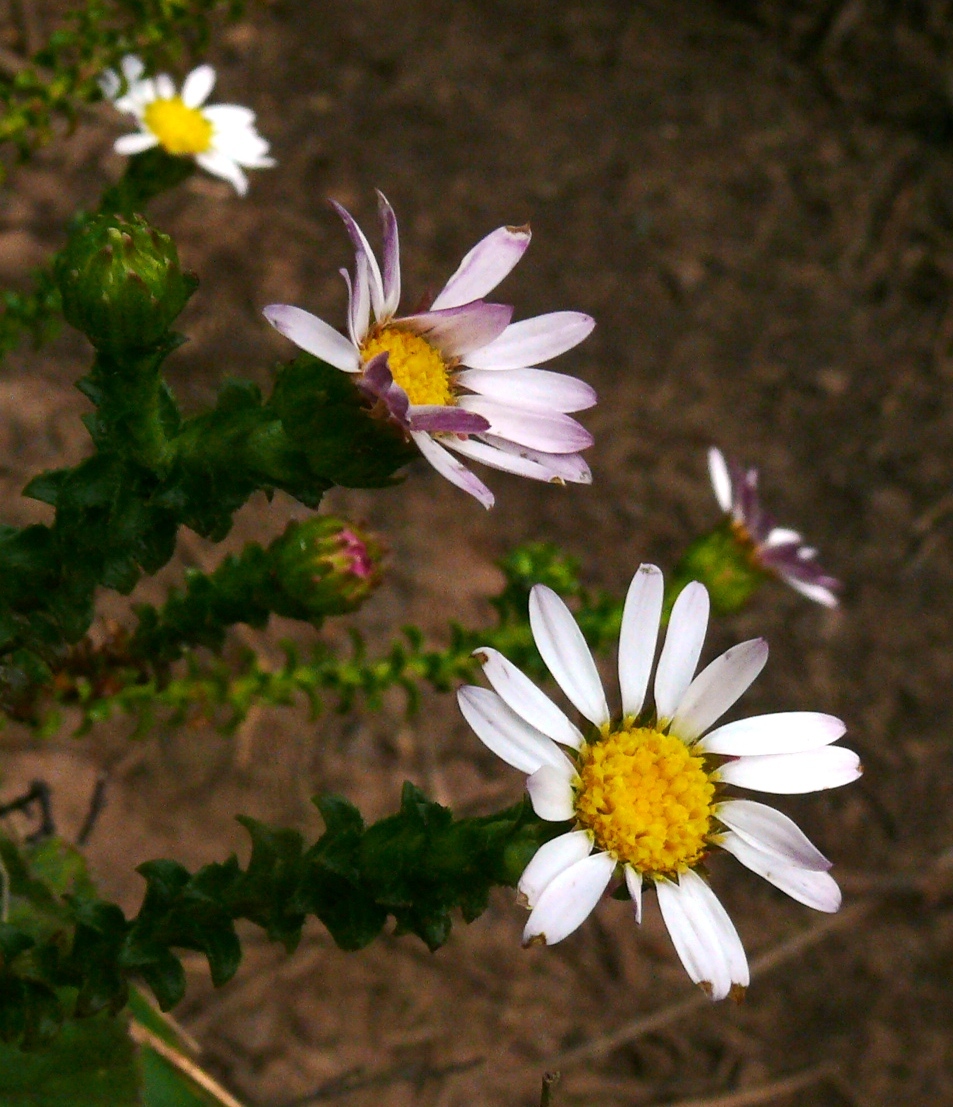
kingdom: Plantae
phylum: Tracheophyta
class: Magnoliopsida
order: Asterales
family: Asteraceae
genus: Polyarrhena
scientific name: Polyarrhena reflexa
